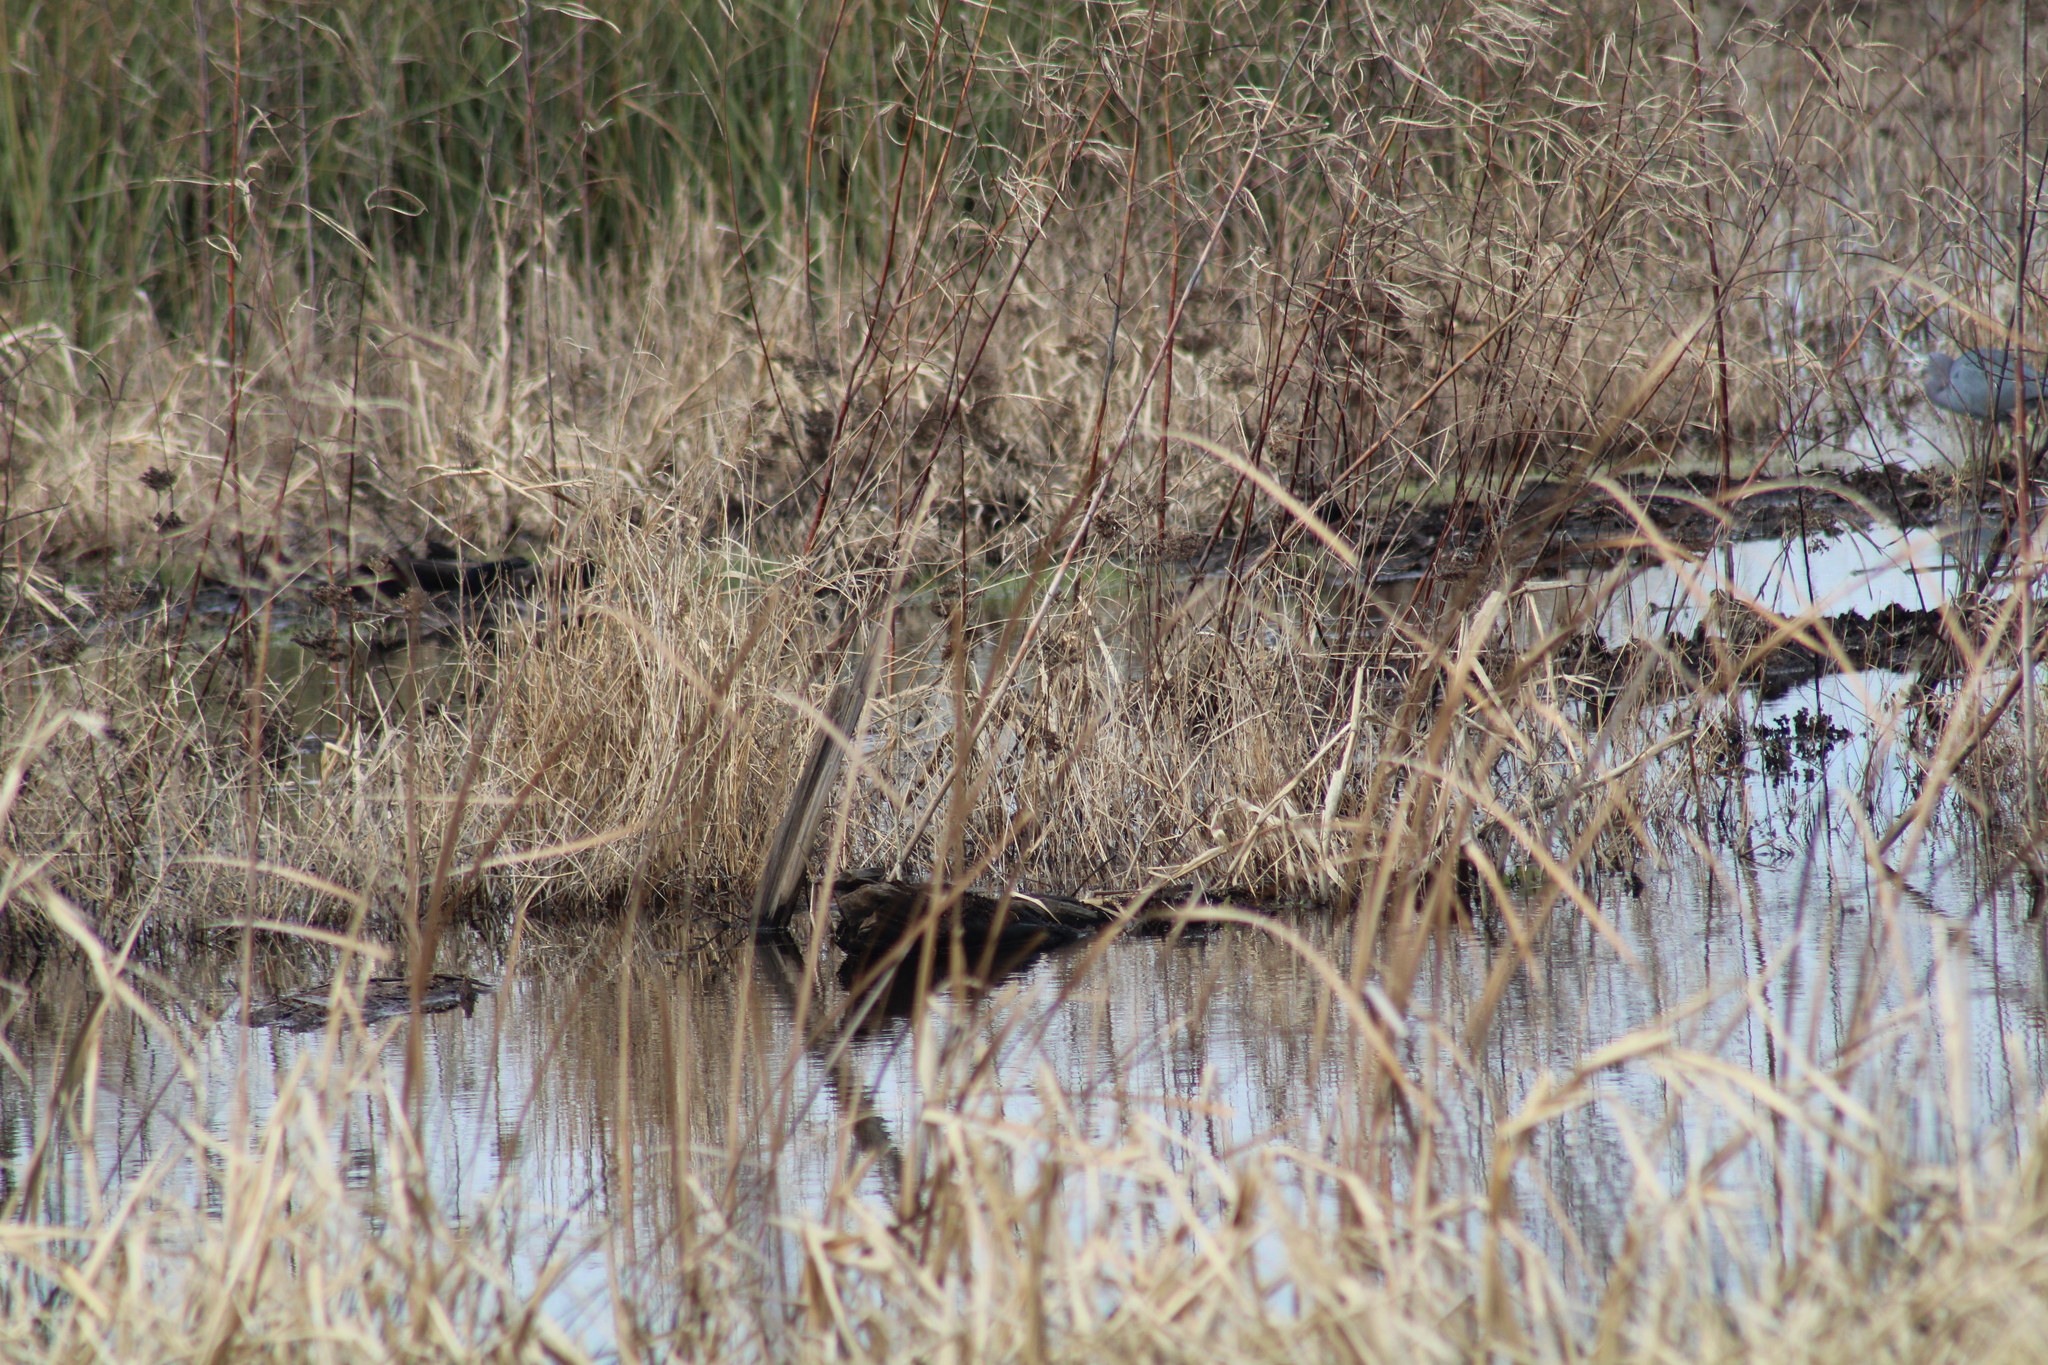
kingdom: Animalia
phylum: Chordata
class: Aves
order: Pelecaniformes
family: Ardeidae
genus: Egretta
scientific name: Egretta caerulea
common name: Little blue heron
